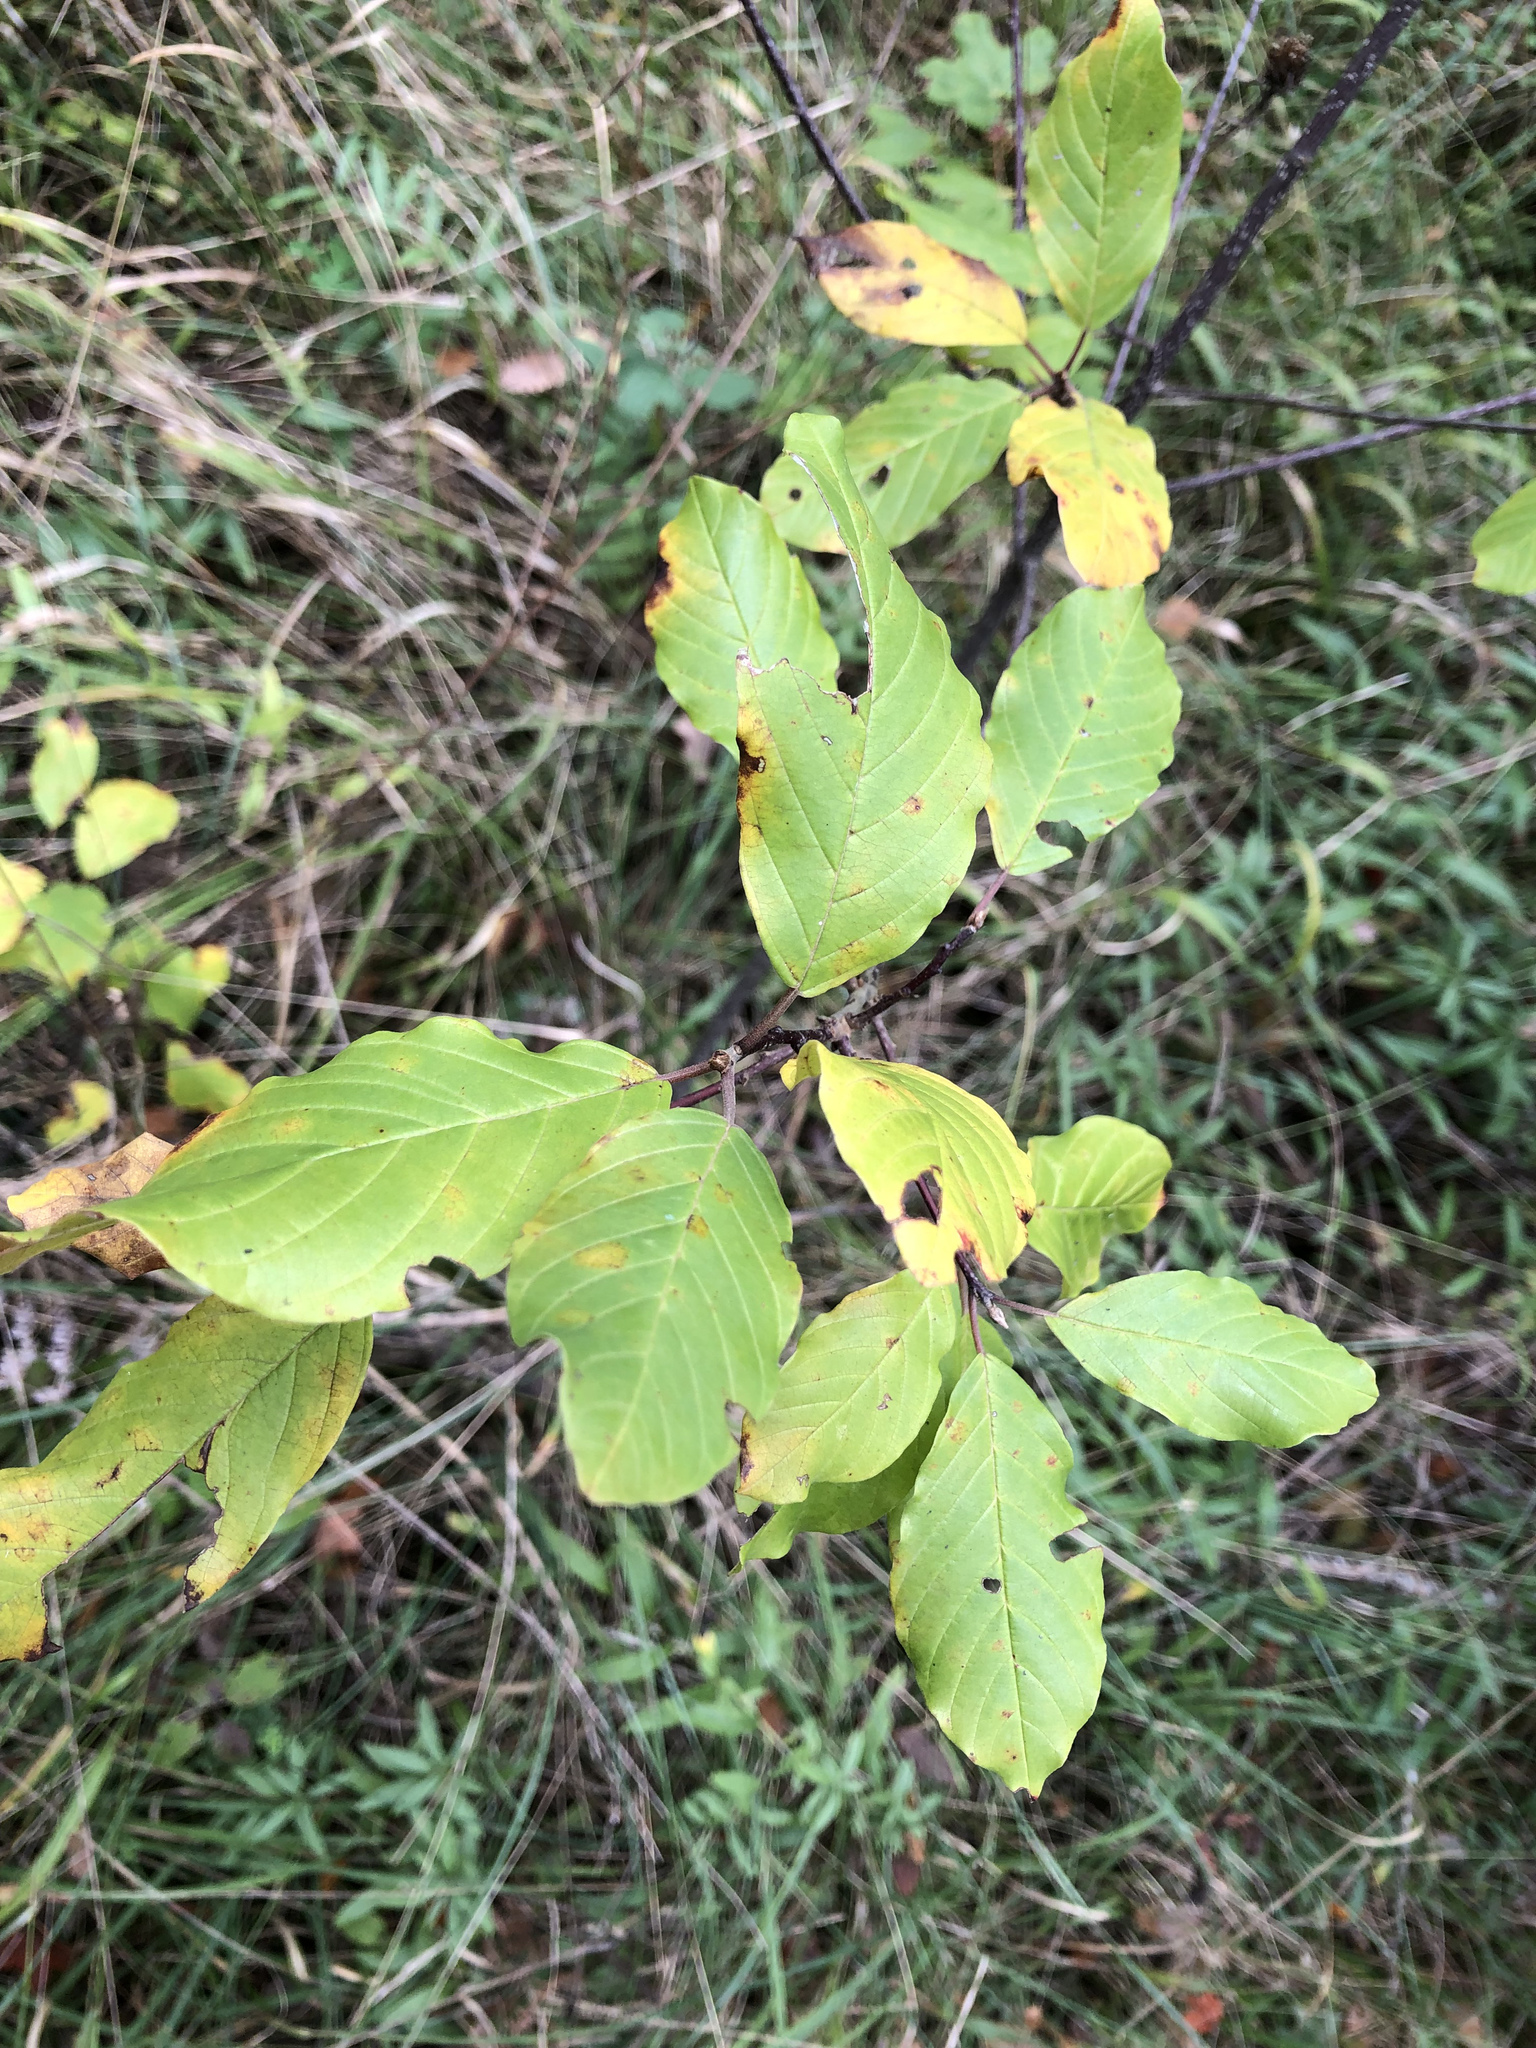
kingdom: Plantae
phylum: Tracheophyta
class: Magnoliopsida
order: Rosales
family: Rhamnaceae
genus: Frangula
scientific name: Frangula alnus
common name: Alder buckthorn
